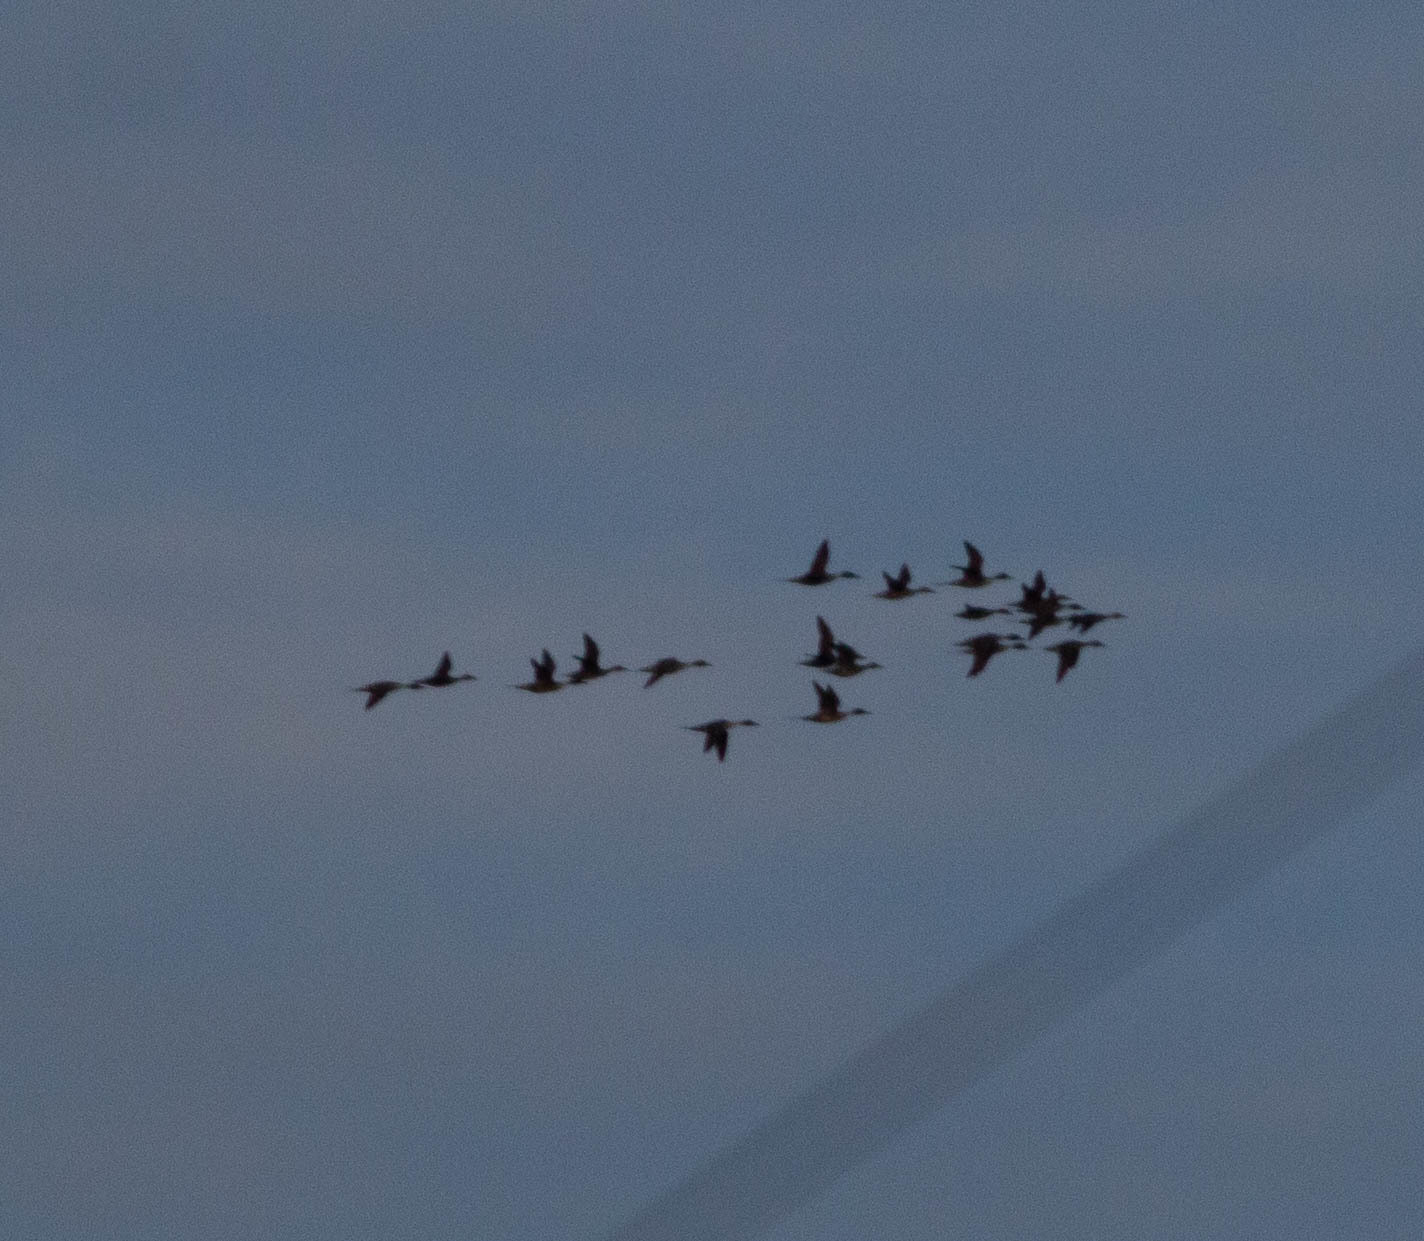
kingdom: Animalia
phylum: Chordata
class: Aves
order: Anseriformes
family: Anatidae
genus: Anas
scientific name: Anas acuta
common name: Northern pintail
